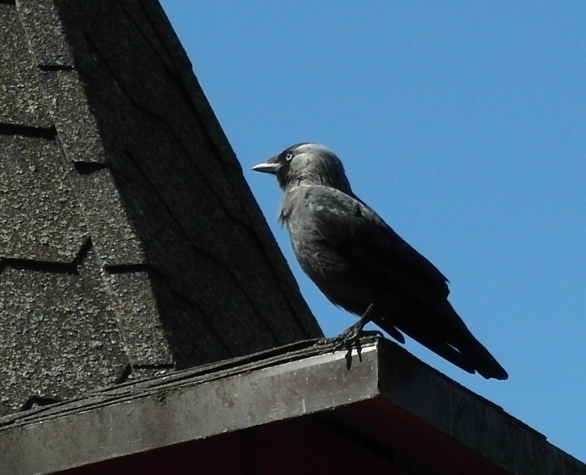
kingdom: Animalia
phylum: Chordata
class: Aves
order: Passeriformes
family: Corvidae
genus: Coloeus
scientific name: Coloeus monedula
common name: Western jackdaw
